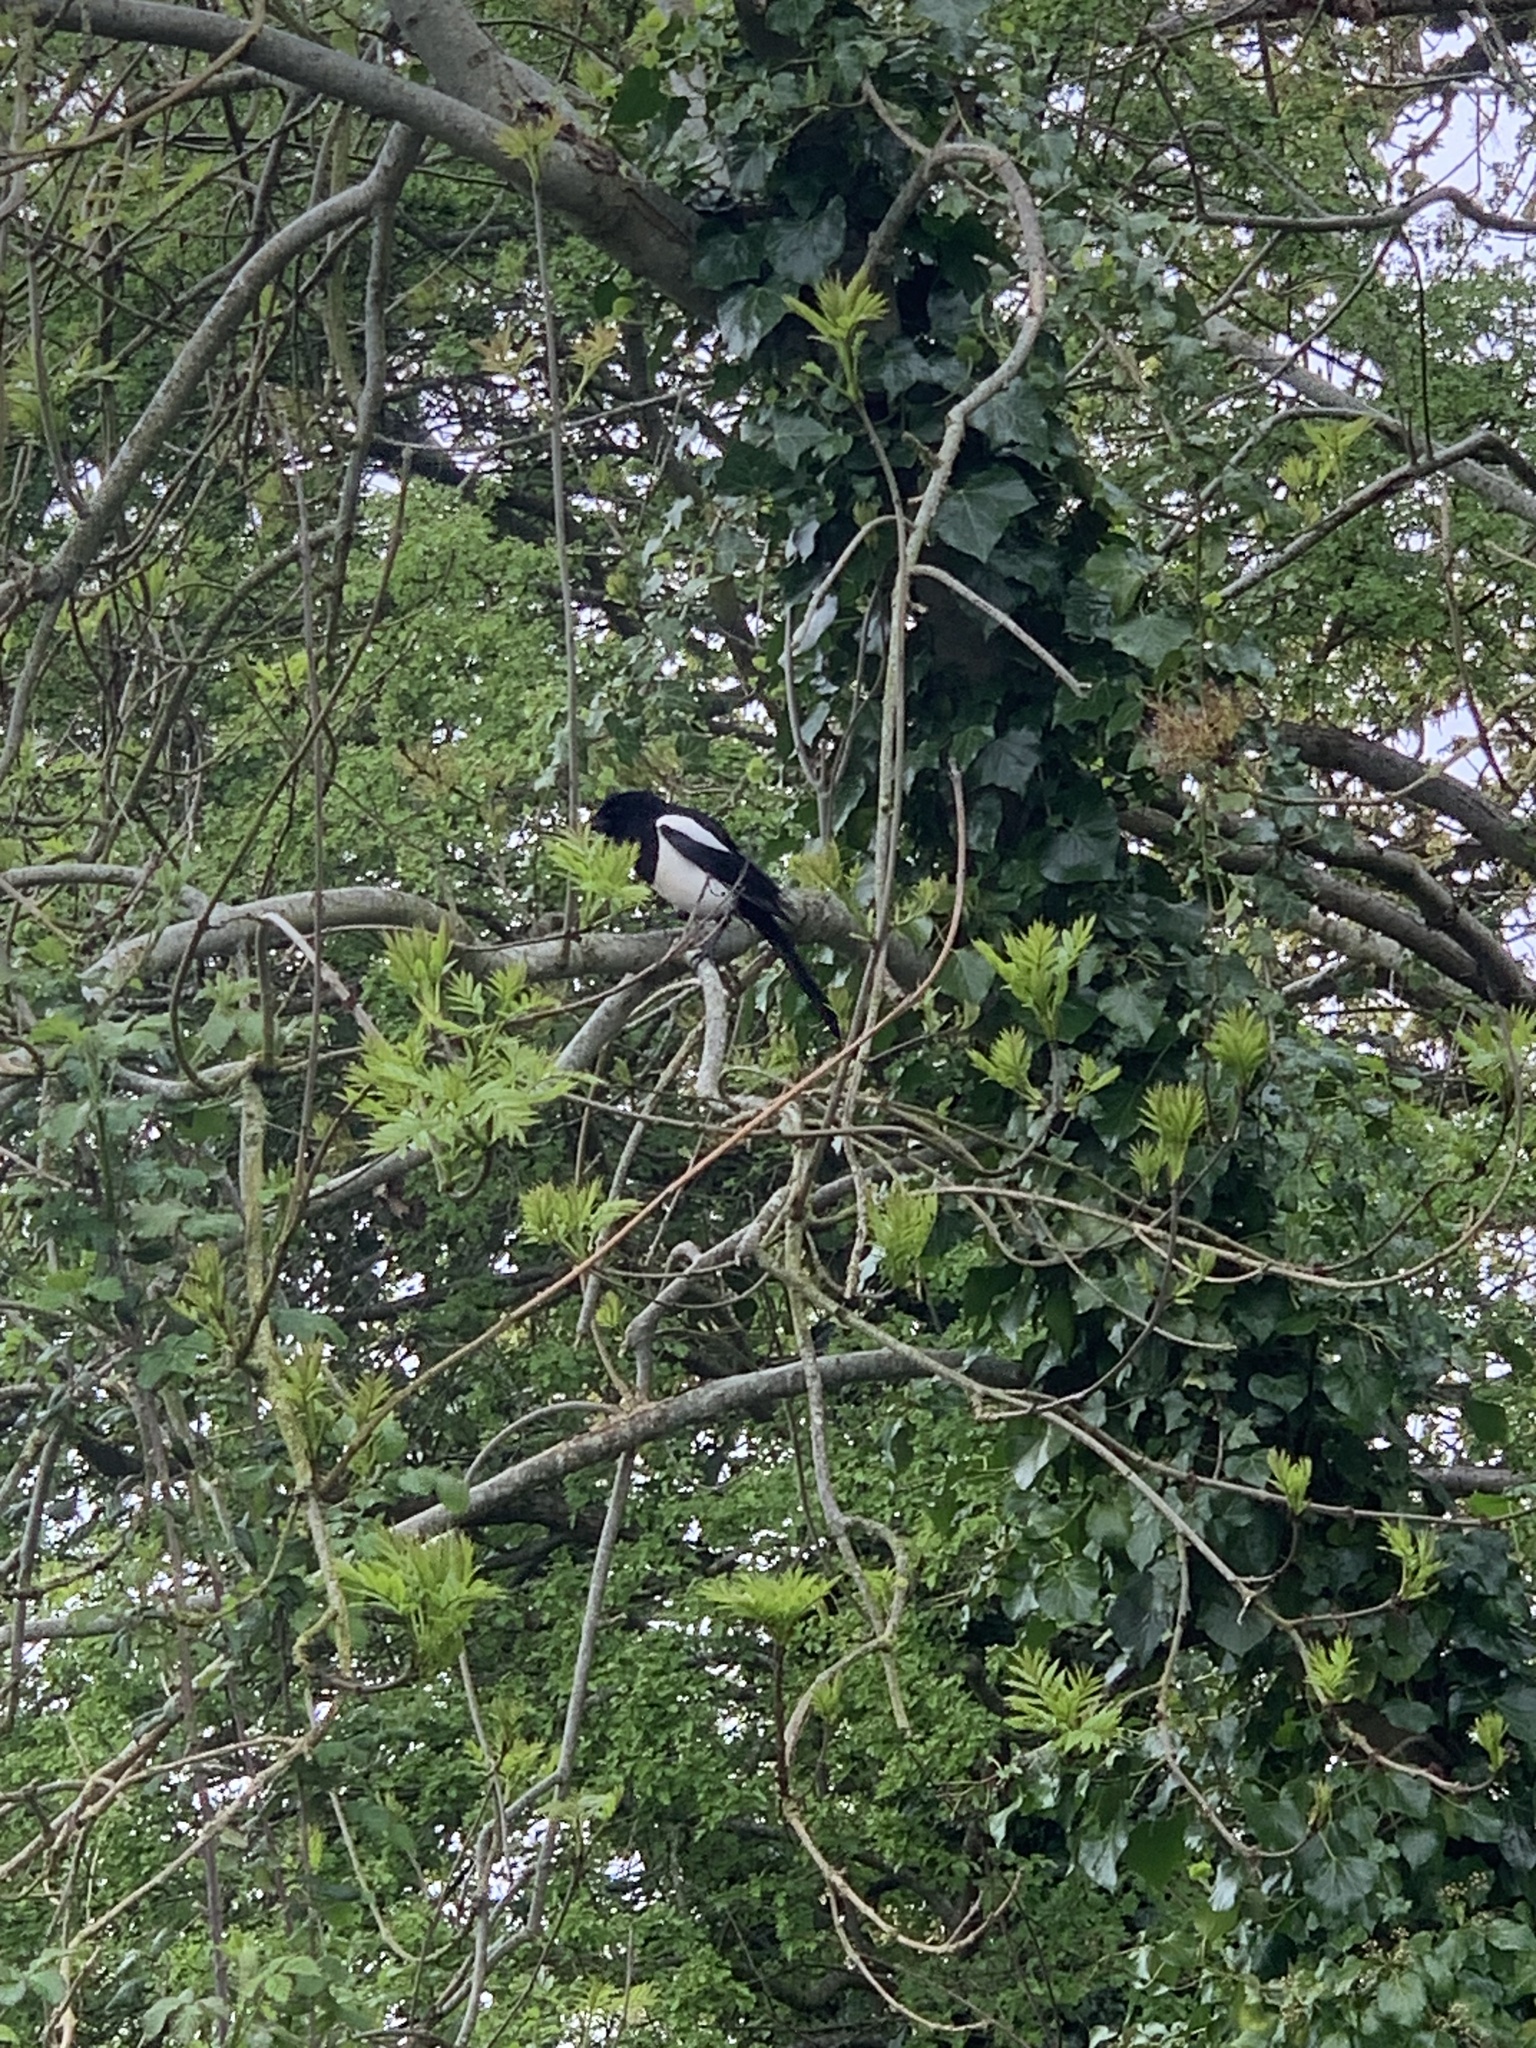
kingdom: Animalia
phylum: Chordata
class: Aves
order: Passeriformes
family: Corvidae
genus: Pica
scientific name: Pica pica
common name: Eurasian magpie
